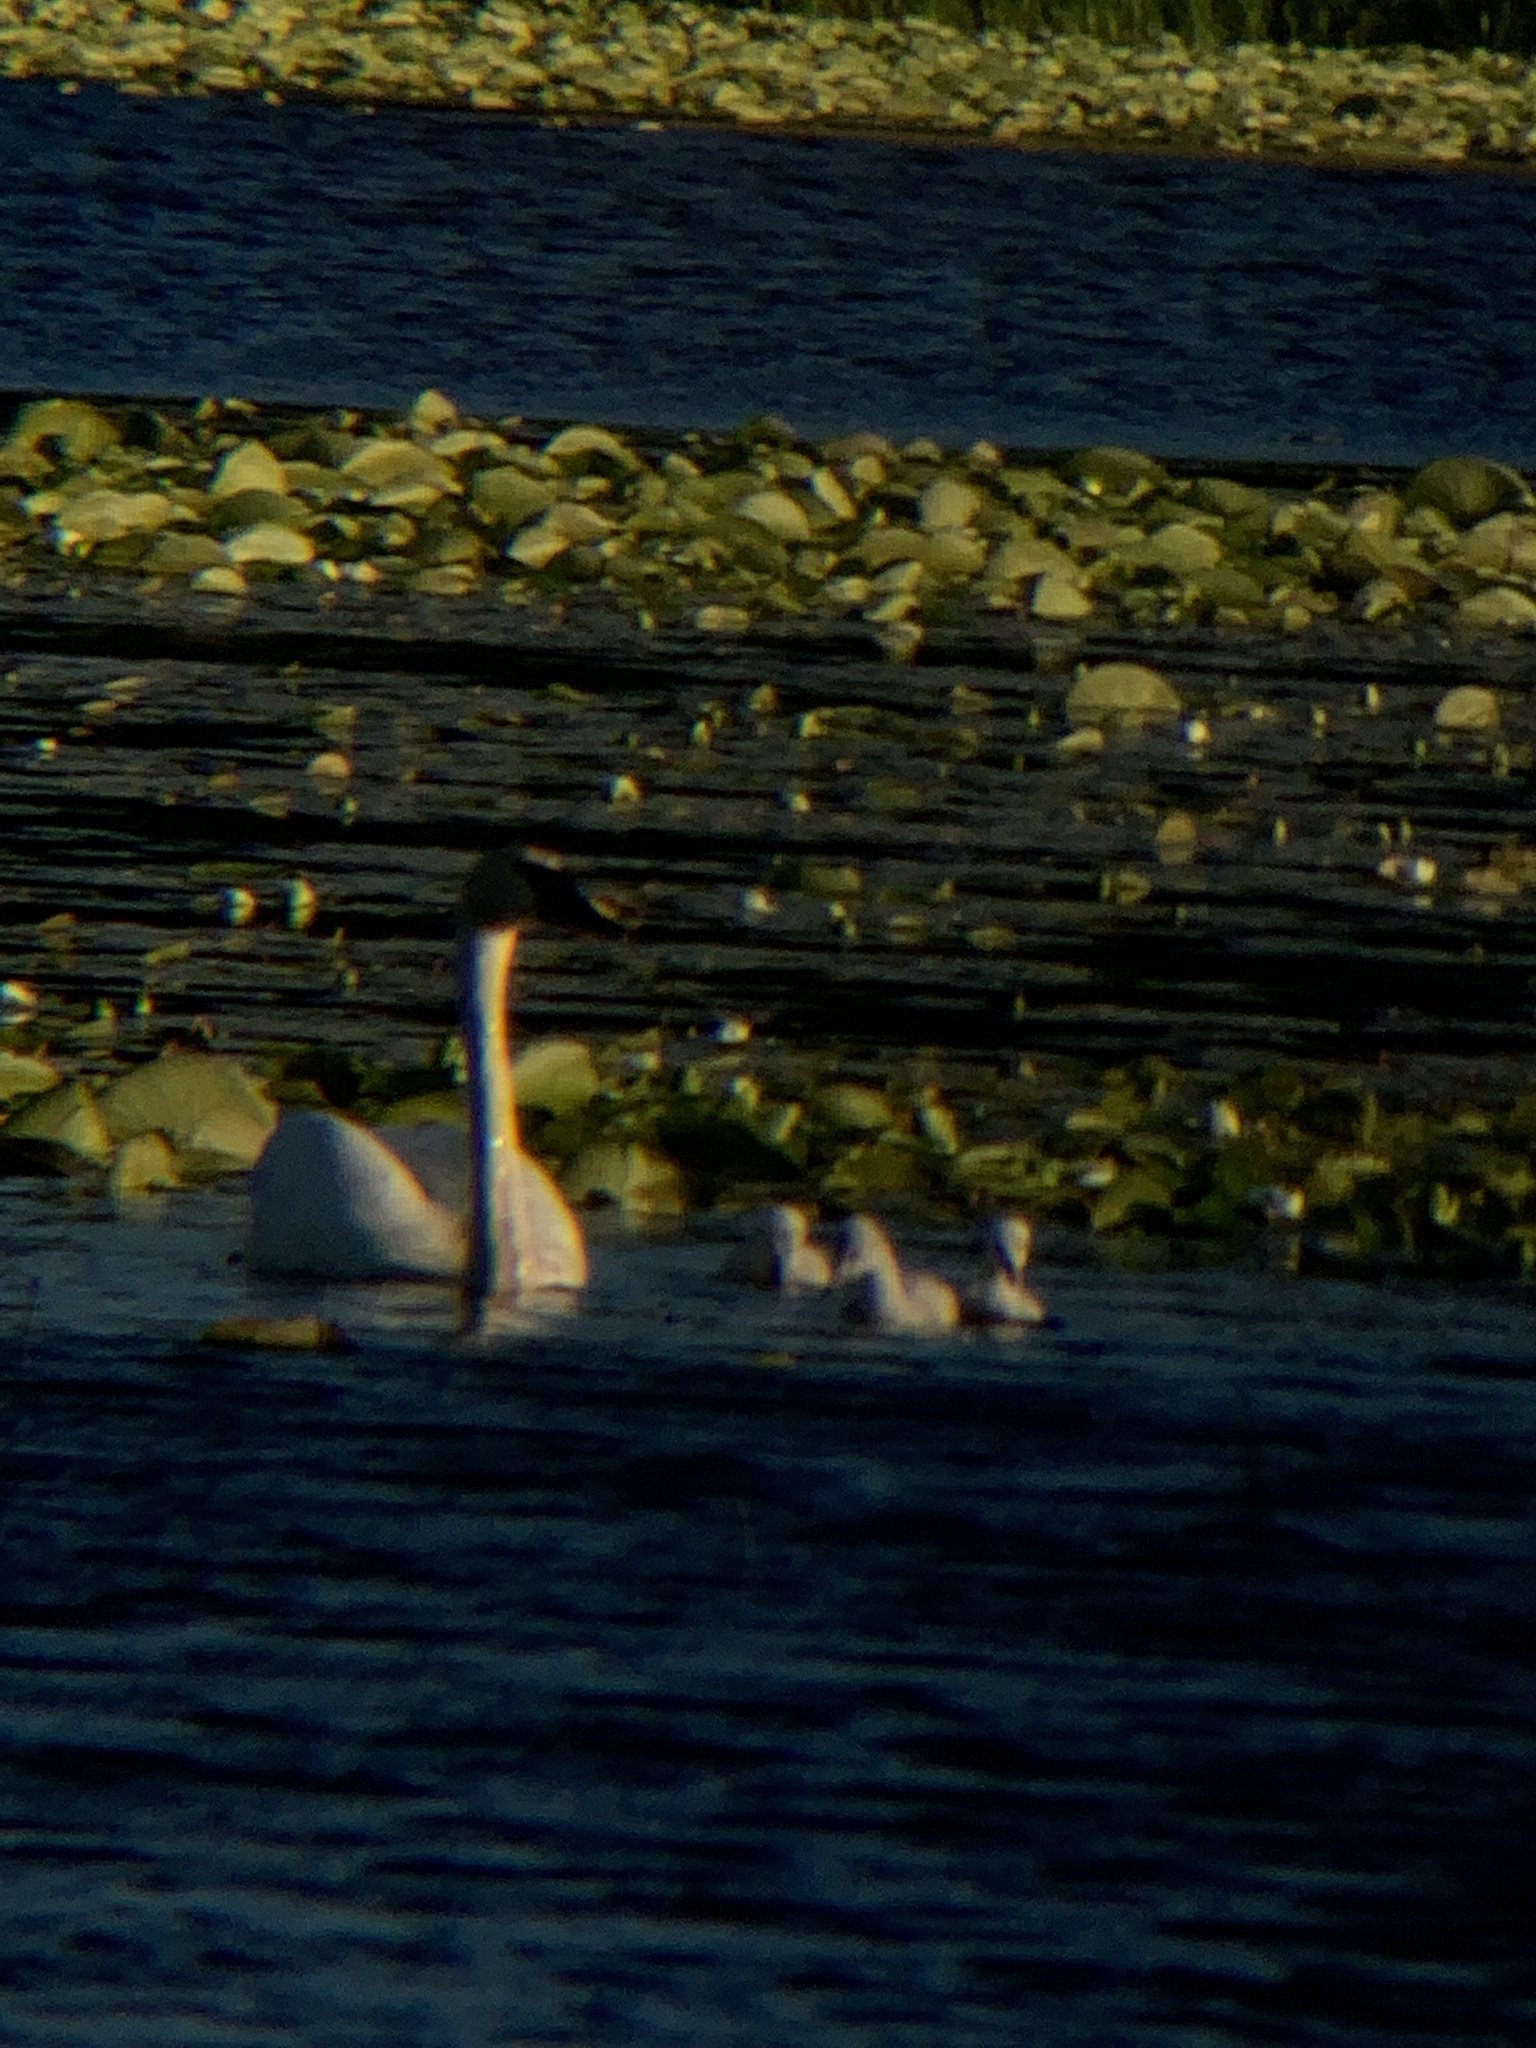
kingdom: Animalia
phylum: Chordata
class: Aves
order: Anseriformes
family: Anatidae
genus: Cygnus
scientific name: Cygnus buccinator
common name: Trumpeter swan
